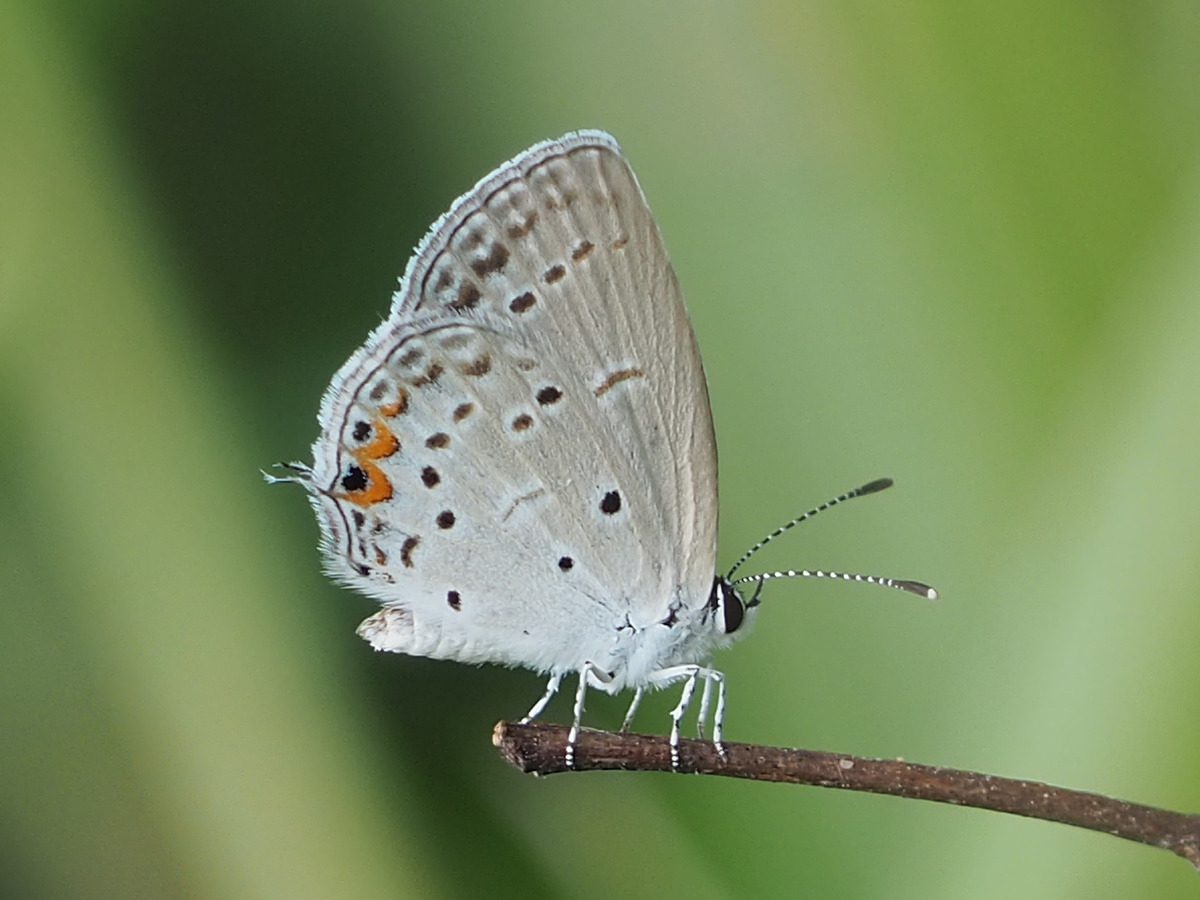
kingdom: Animalia
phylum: Arthropoda
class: Insecta
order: Lepidoptera
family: Lycaenidae
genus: Elkalyce
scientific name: Elkalyce comyntas
